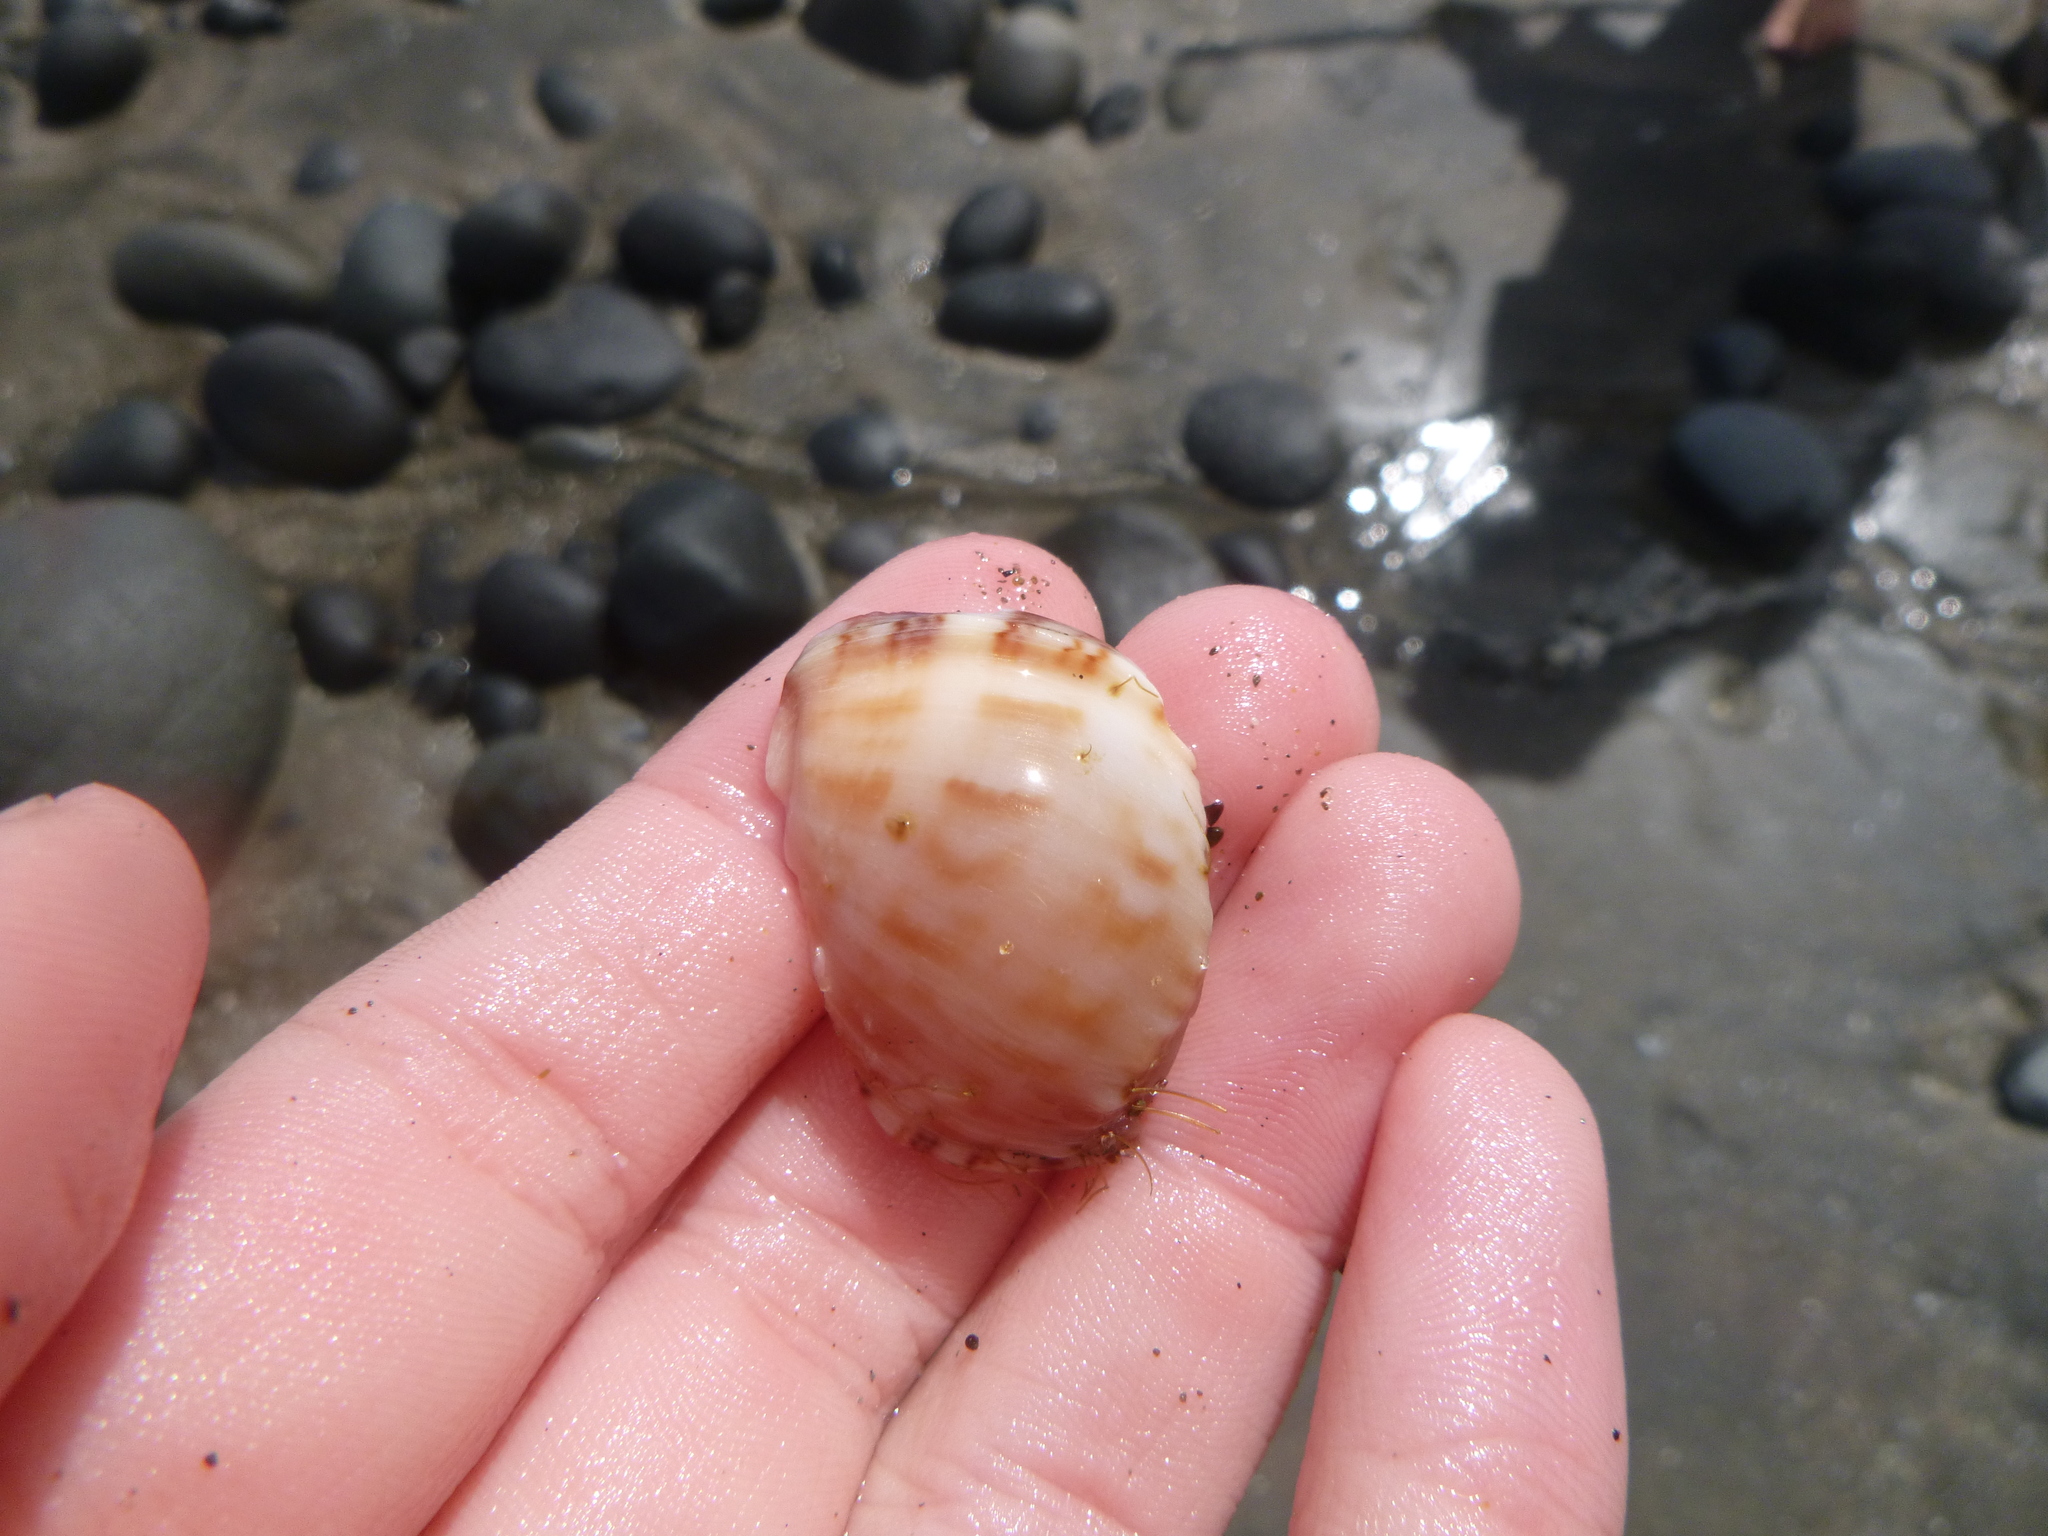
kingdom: Animalia
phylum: Mollusca
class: Gastropoda
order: Littorinimorpha
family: Cassidae
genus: Semicassis
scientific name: Semicassis pyrum
